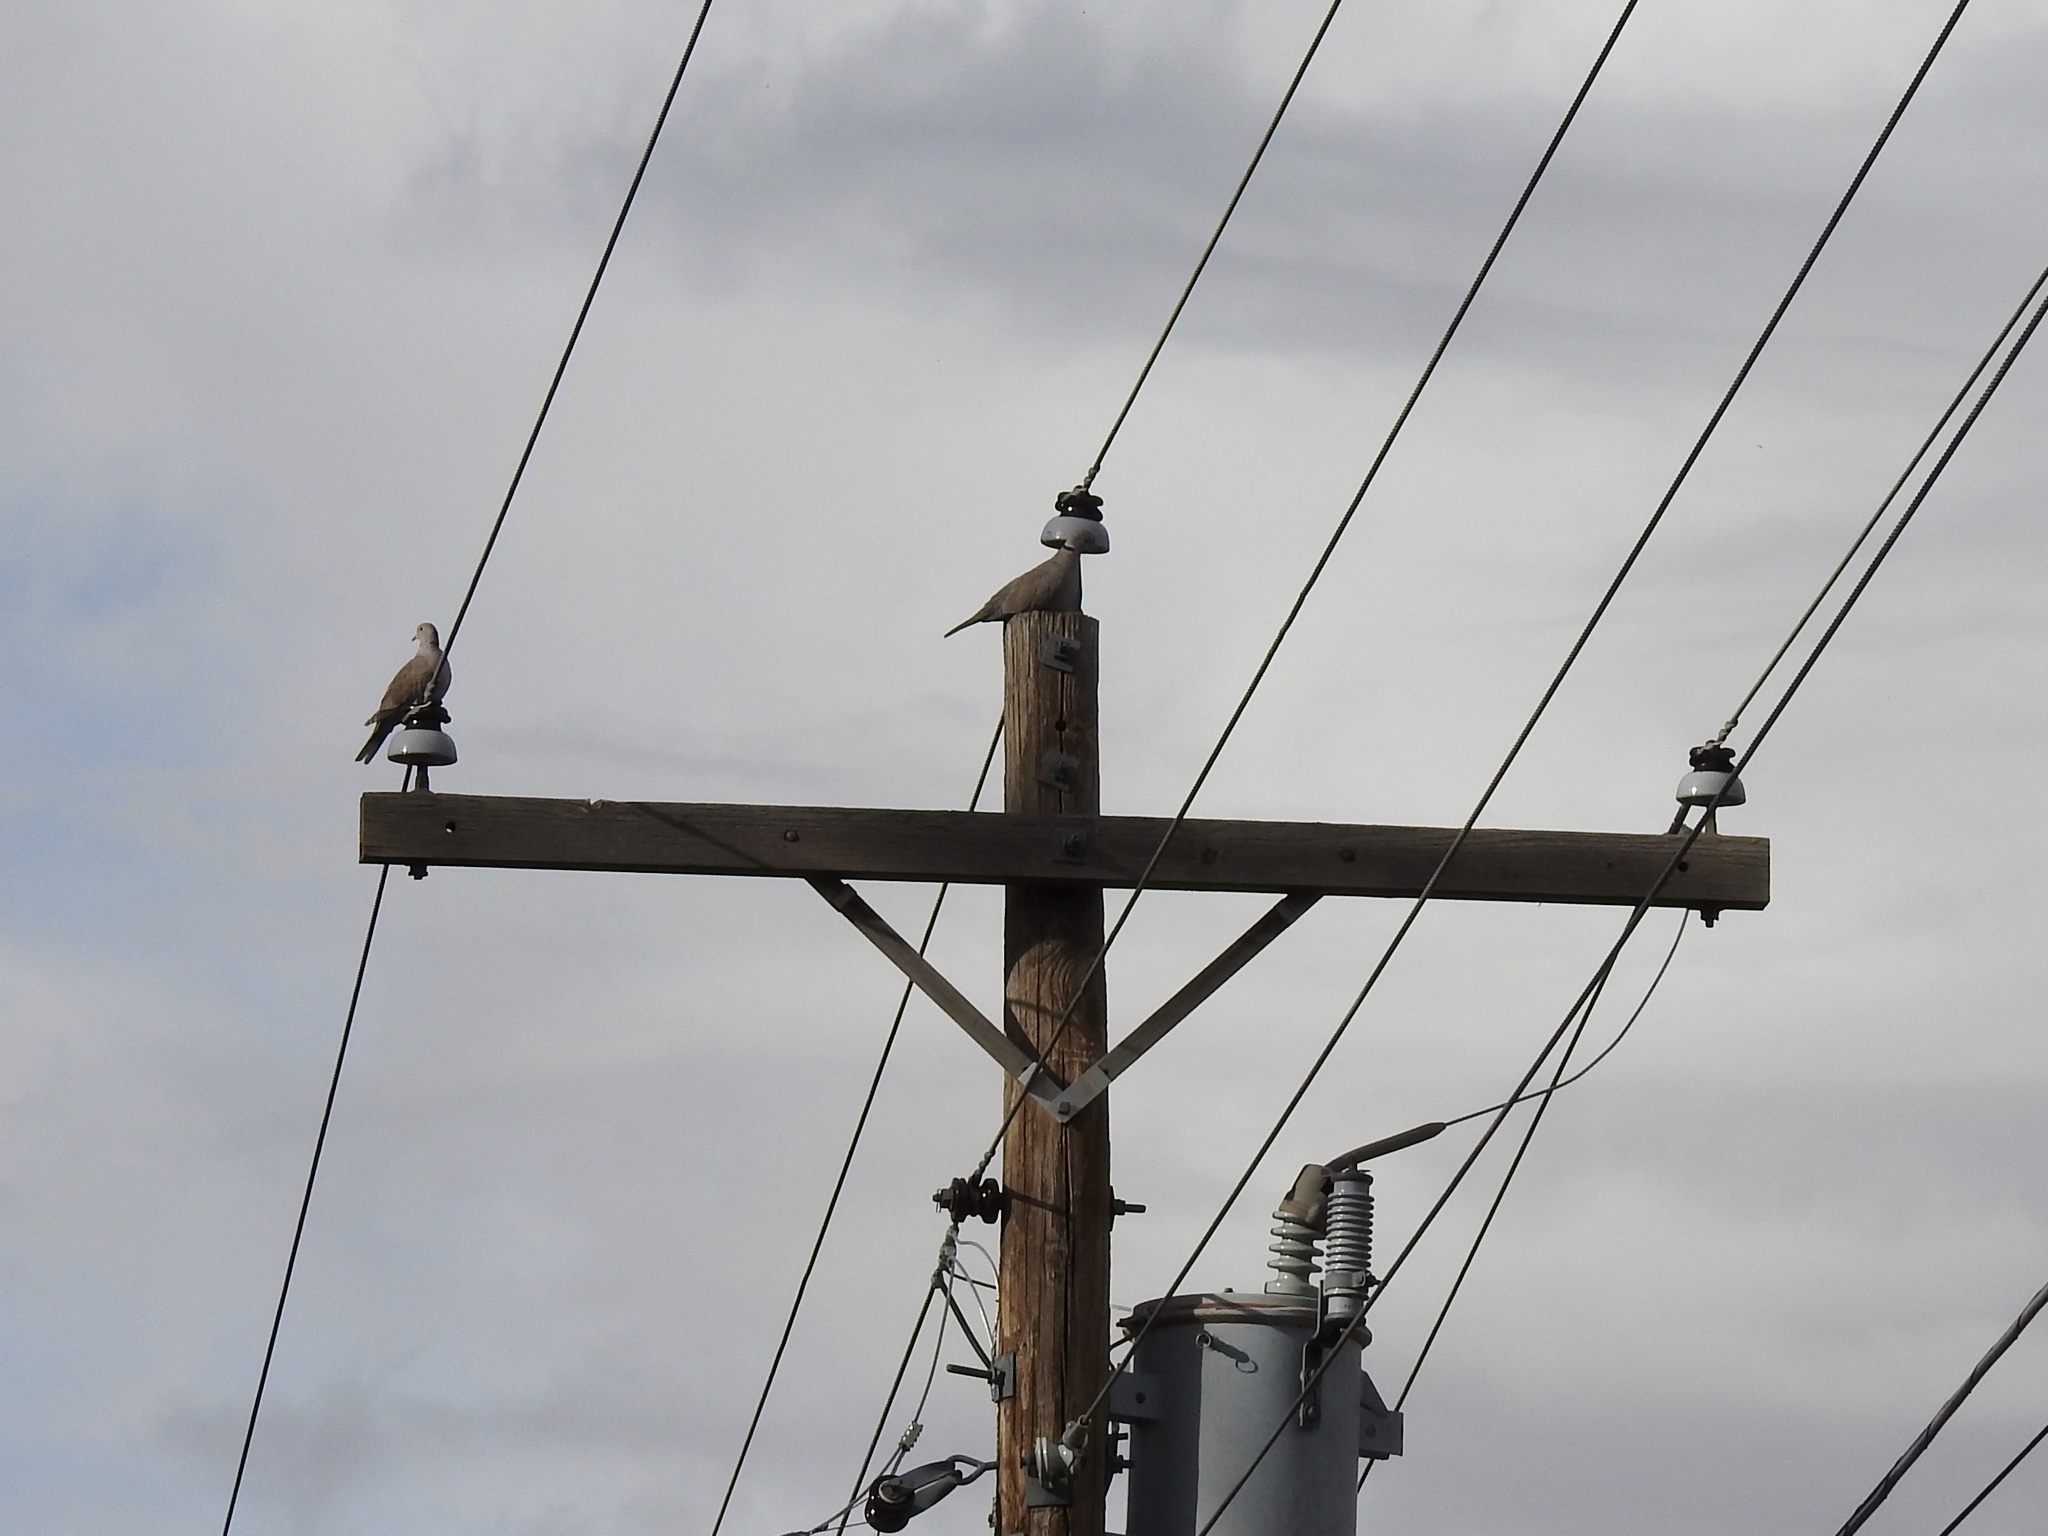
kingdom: Animalia
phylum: Chordata
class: Aves
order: Columbiformes
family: Columbidae
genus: Streptopelia
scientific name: Streptopelia decaocto
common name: Eurasian collared dove
